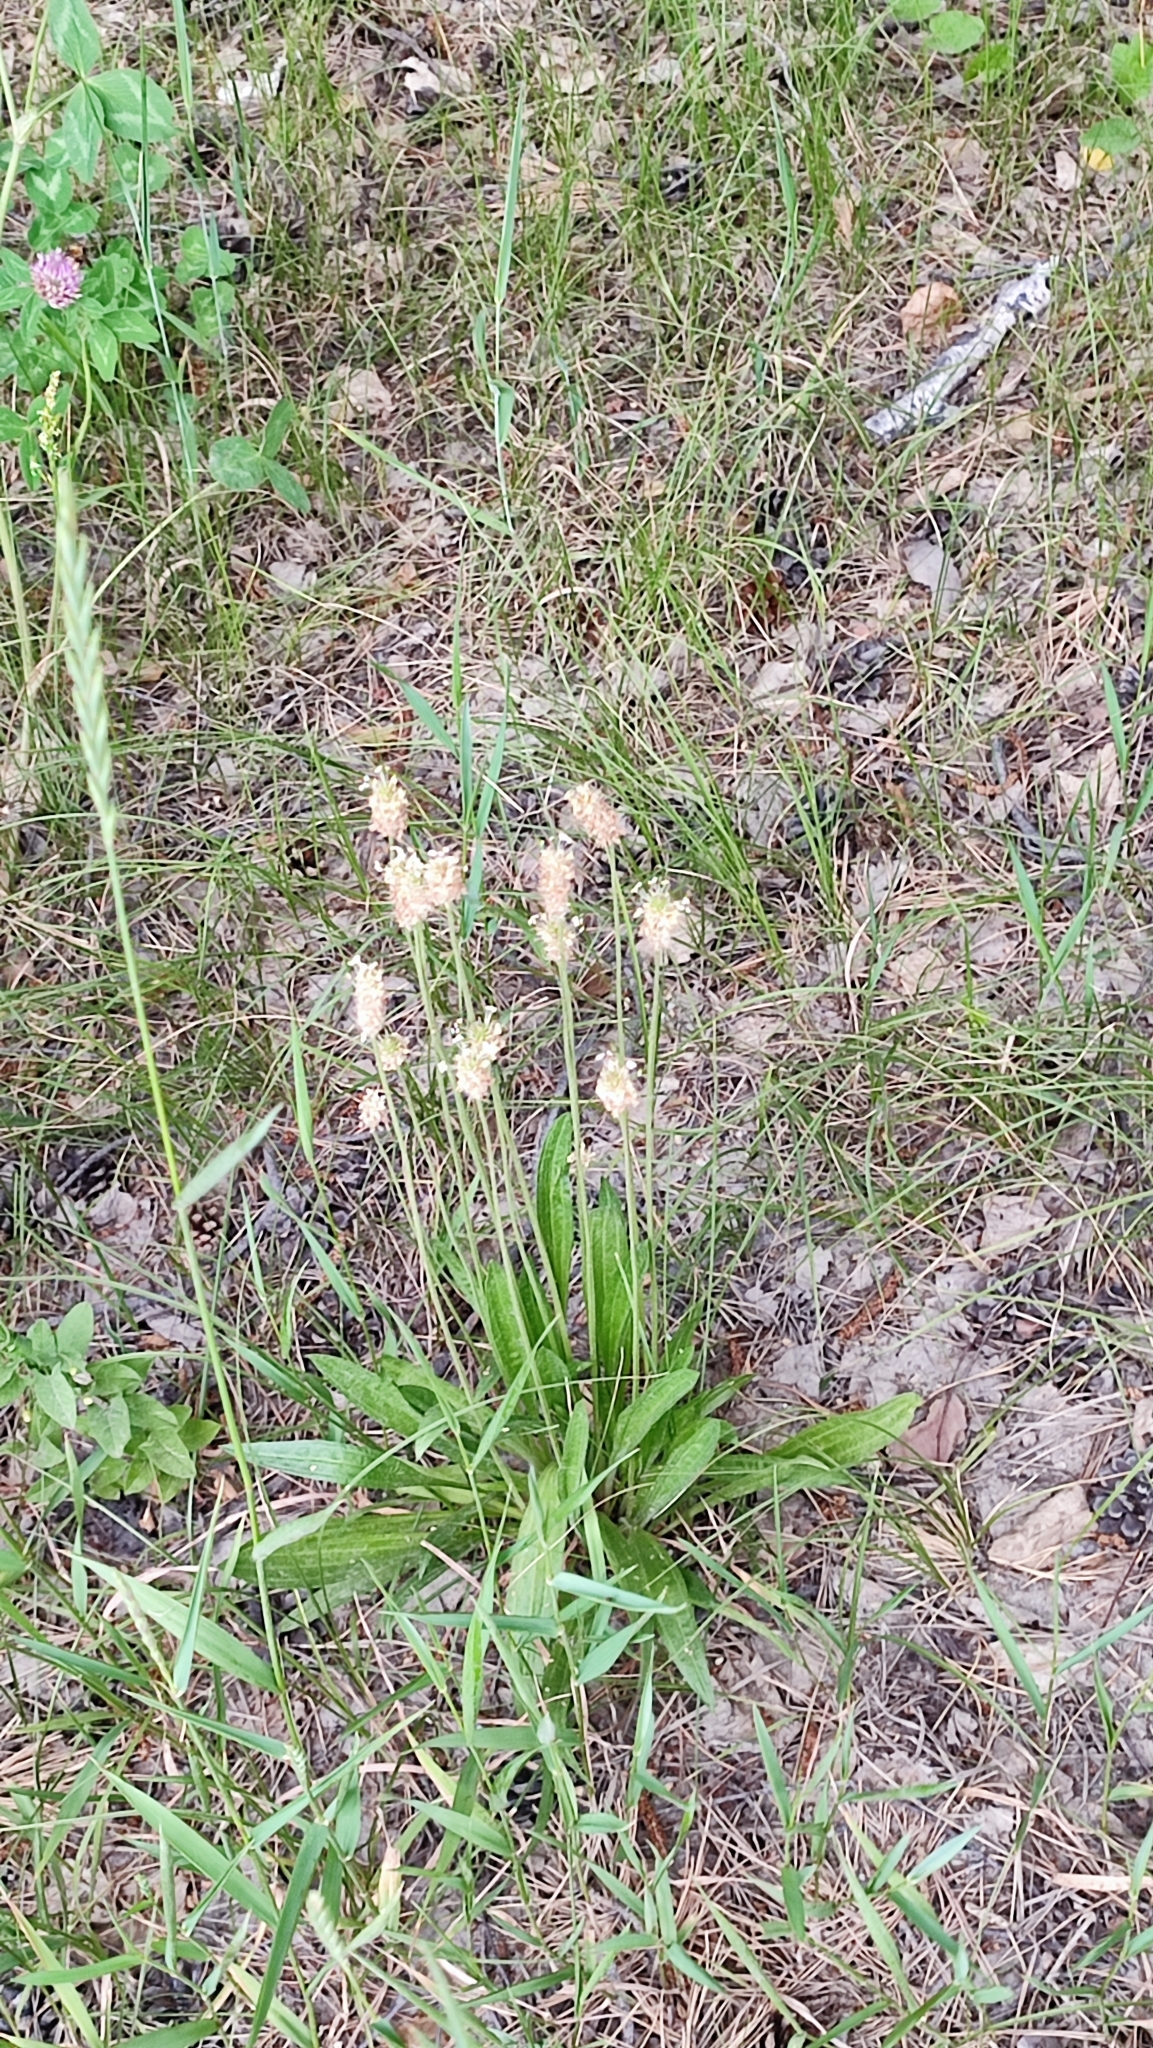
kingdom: Plantae
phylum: Tracheophyta
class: Magnoliopsida
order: Lamiales
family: Plantaginaceae
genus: Plantago
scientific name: Plantago lanceolata
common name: Ribwort plantain
